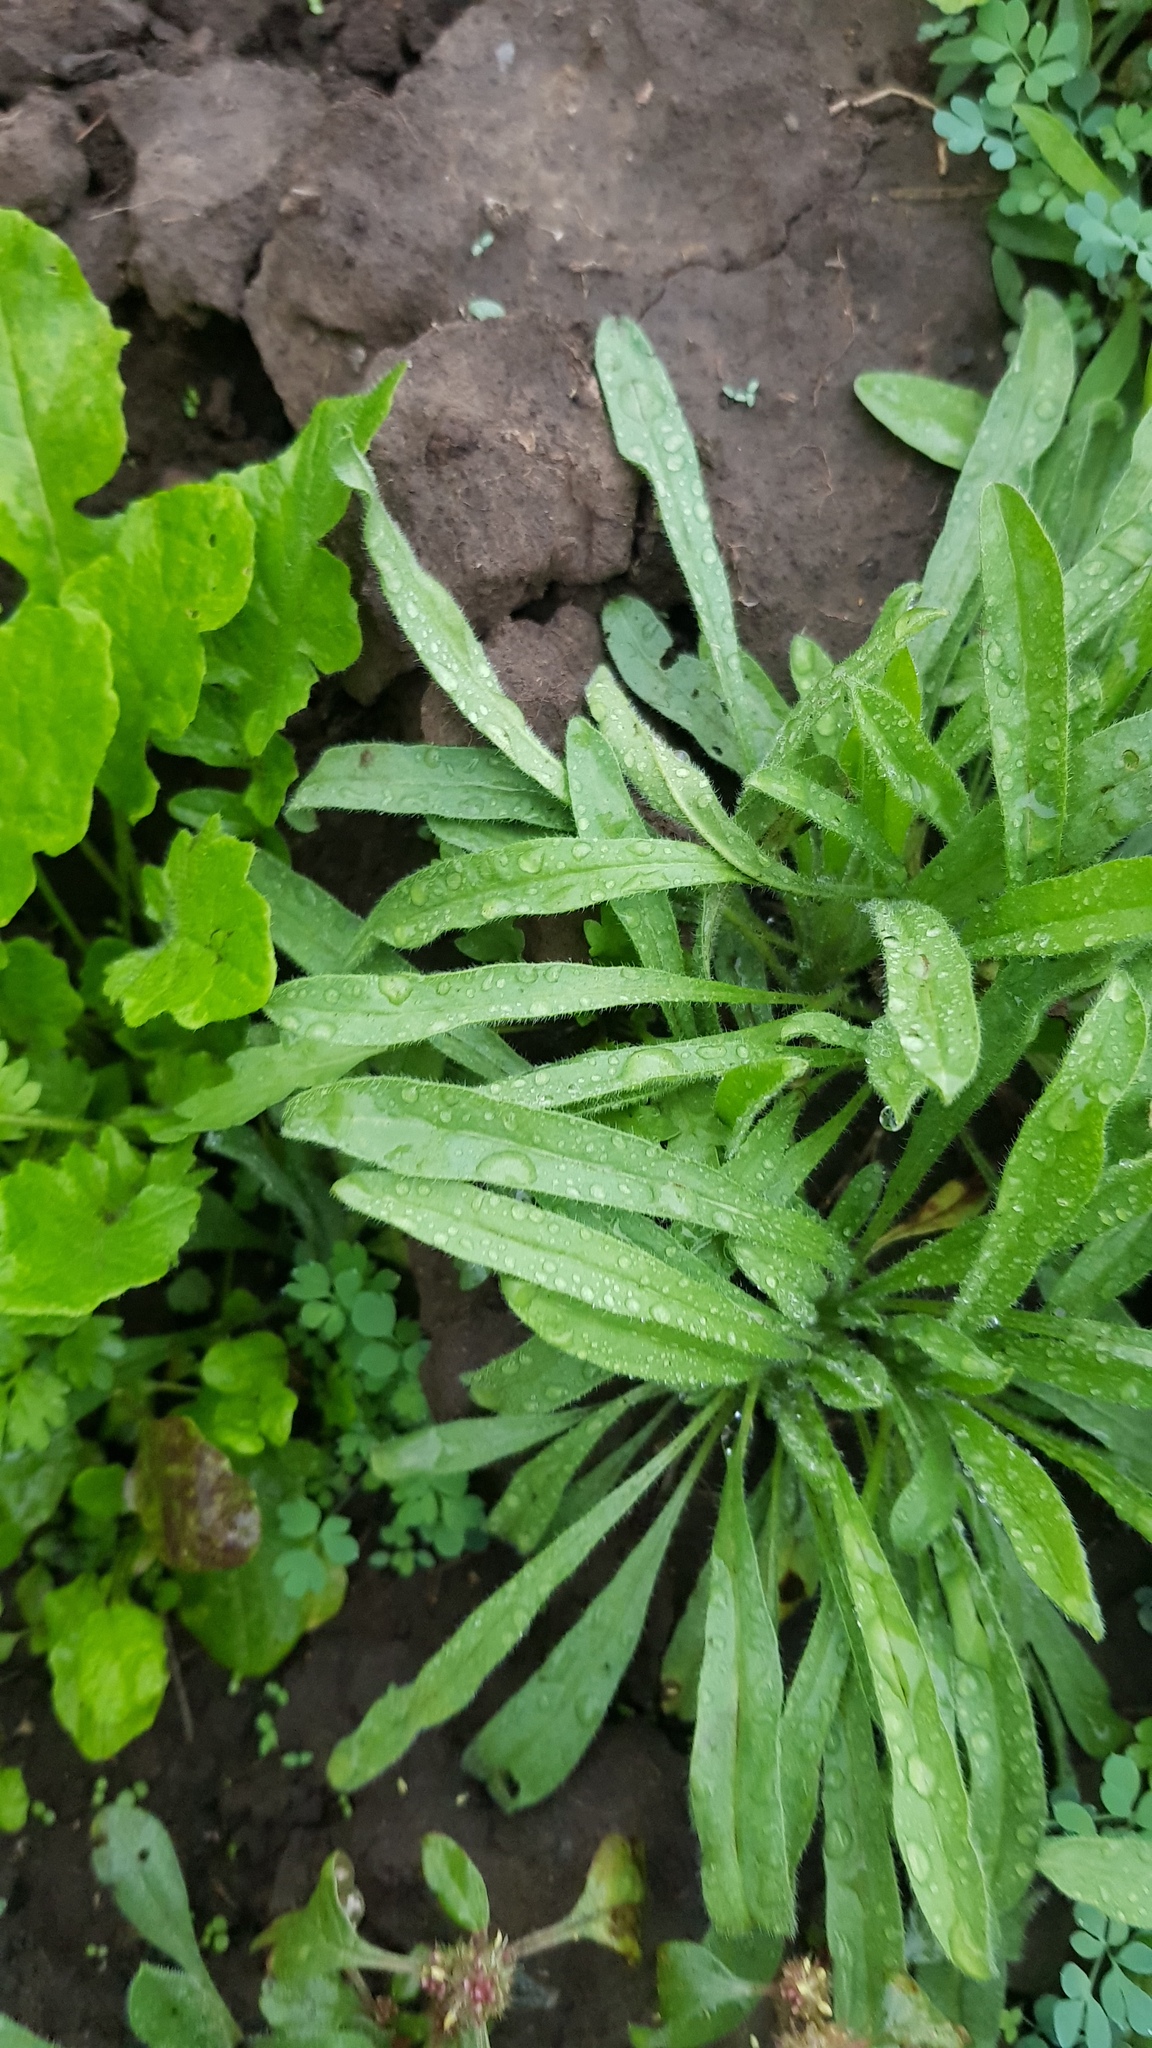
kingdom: Plantae
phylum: Tracheophyta
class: Magnoliopsida
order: Lamiales
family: Plantaginaceae
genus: Plantago
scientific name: Plantago maritima
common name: Sea plantain
